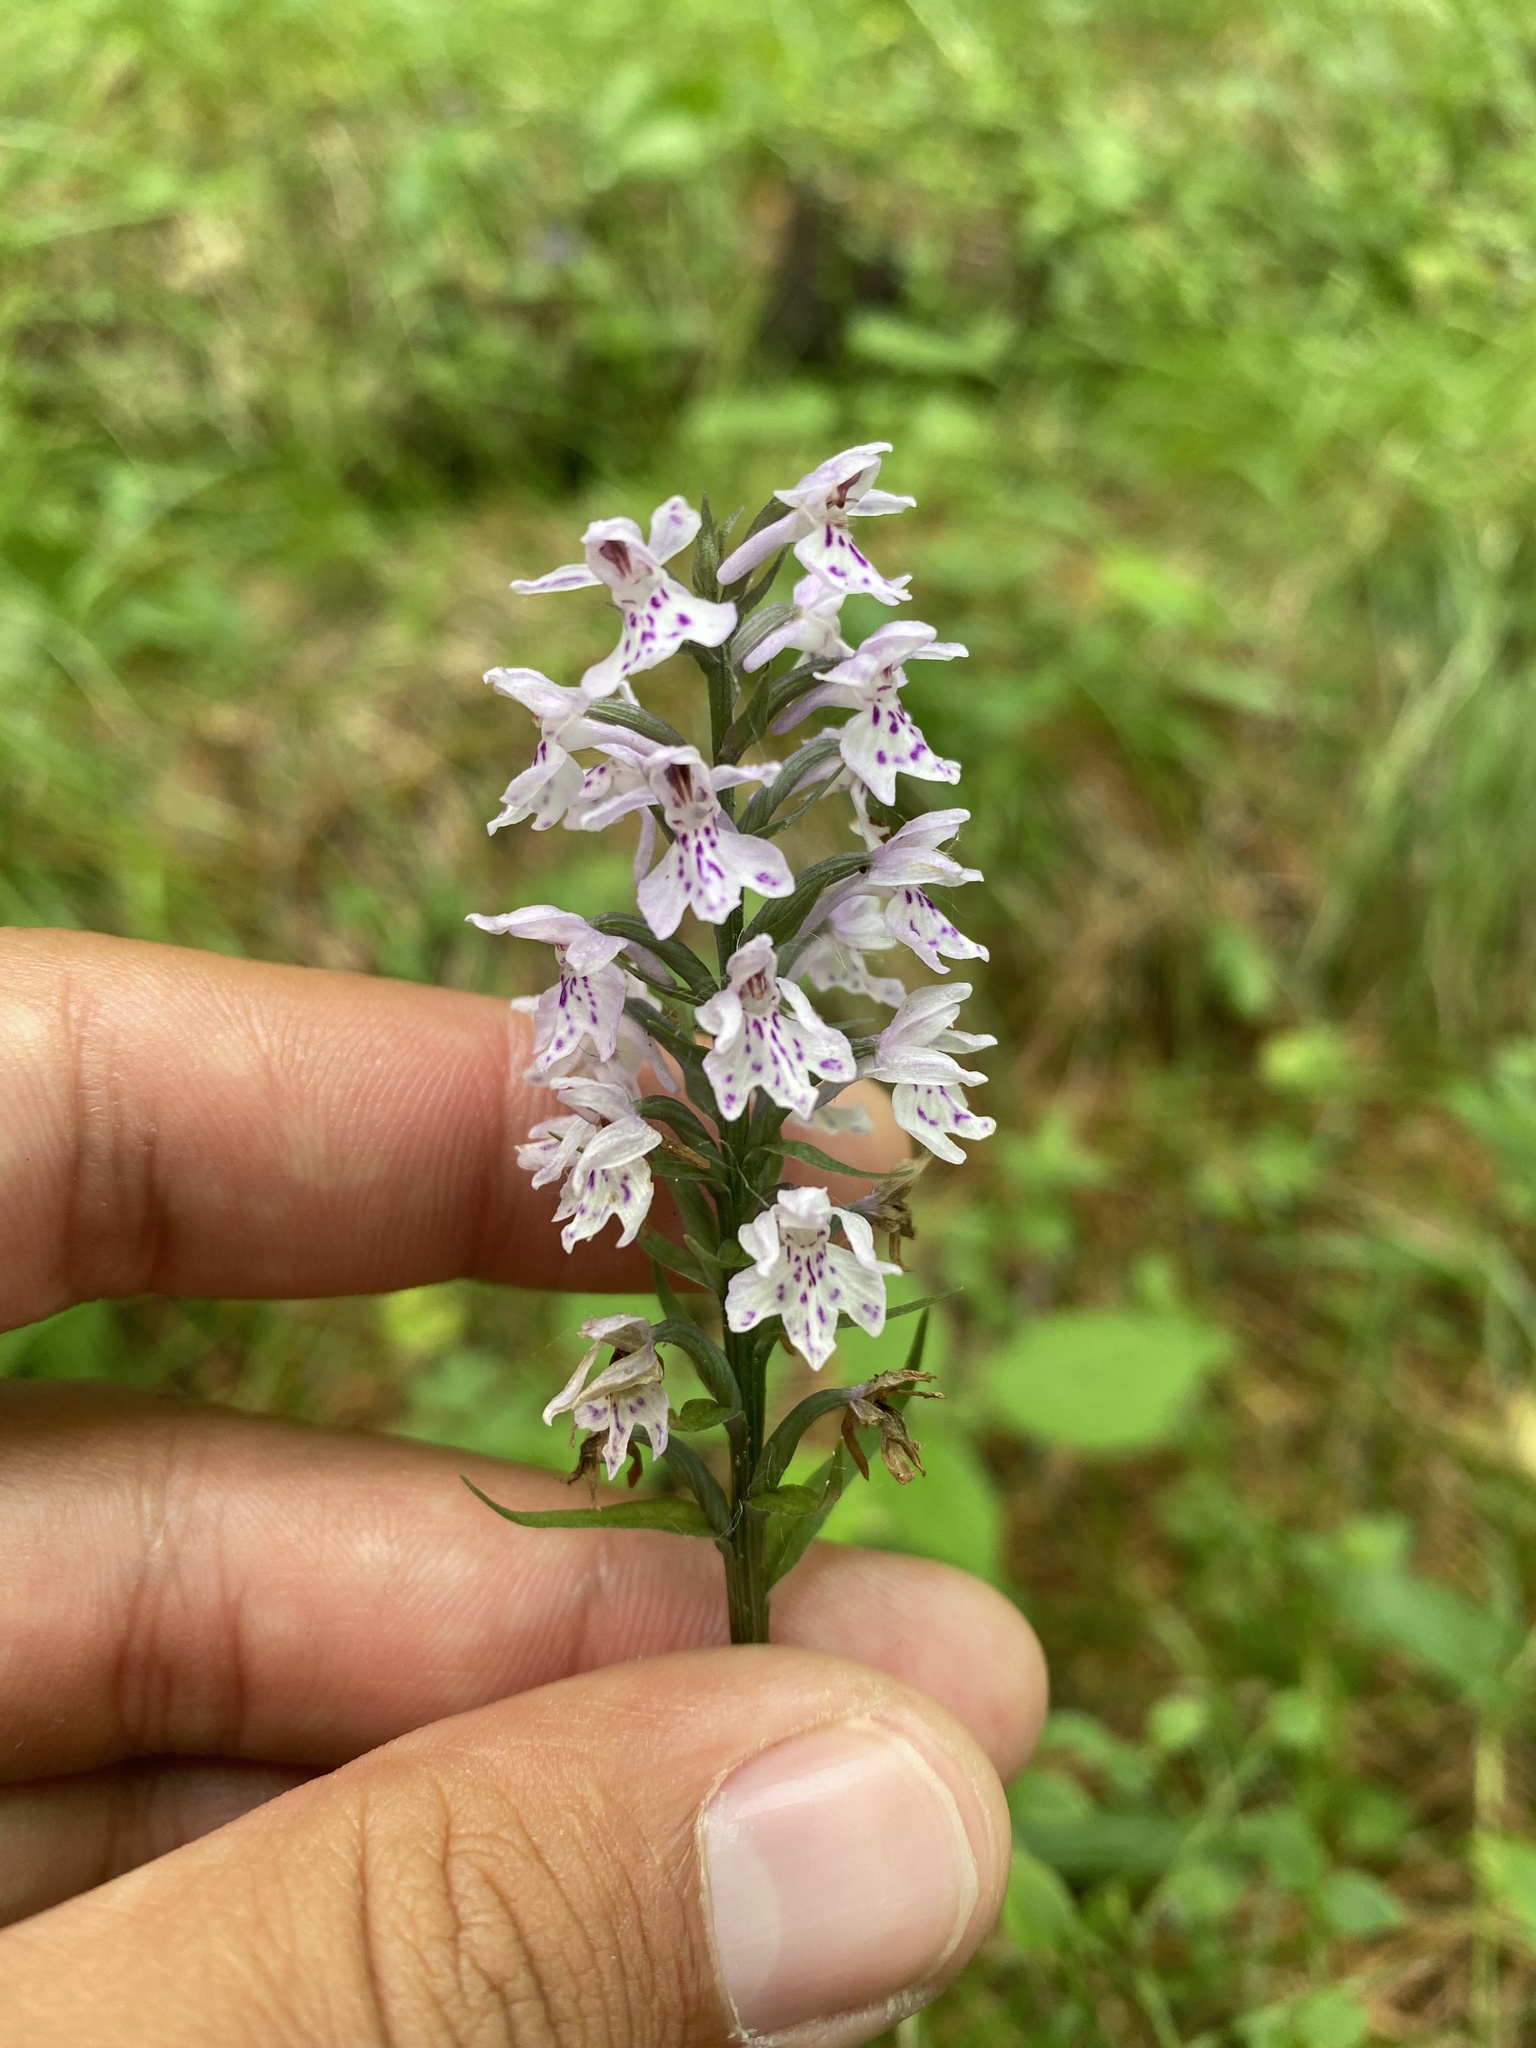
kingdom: Plantae
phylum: Tracheophyta
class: Liliopsida
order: Asparagales
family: Orchidaceae
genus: Dactylorhiza
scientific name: Dactylorhiza maculata
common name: Heath spotted-orchid
